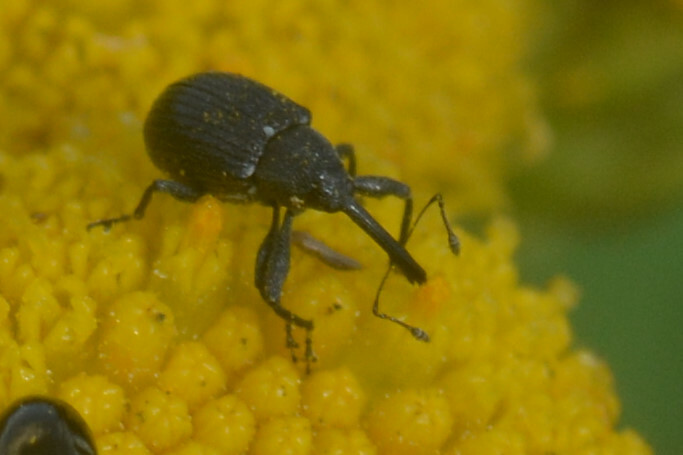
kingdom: Animalia
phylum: Arthropoda
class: Insecta
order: Coleoptera
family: Curculionidae
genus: Anthonomus
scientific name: Anthonomus rubi
